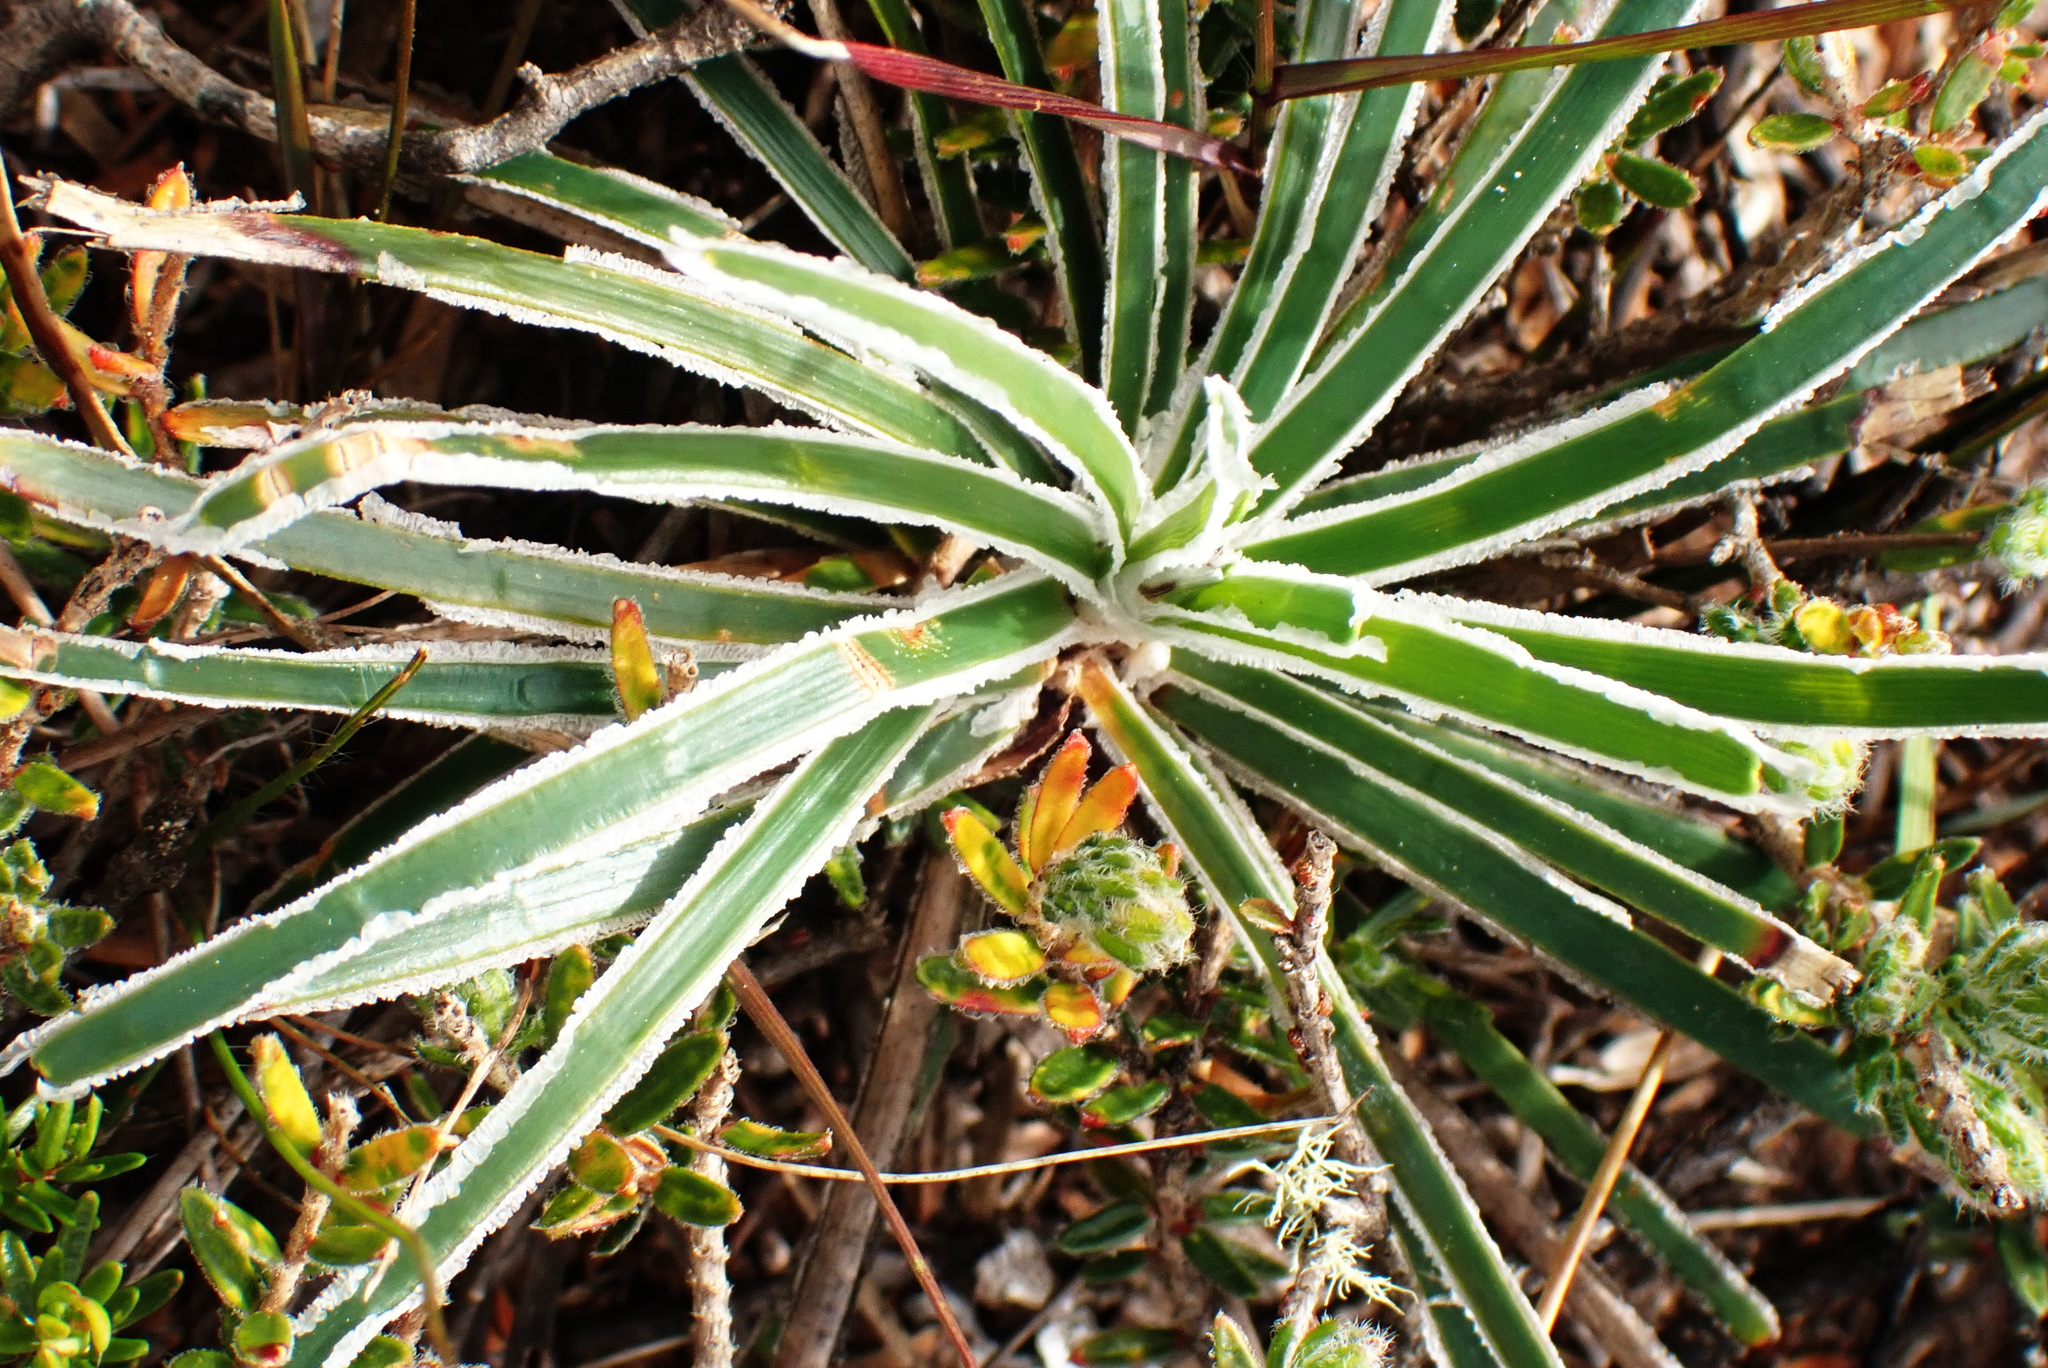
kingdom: Plantae
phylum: Tracheophyta
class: Liliopsida
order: Poales
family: Cyperaceae
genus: Ficinia
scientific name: Ficinia truncata
